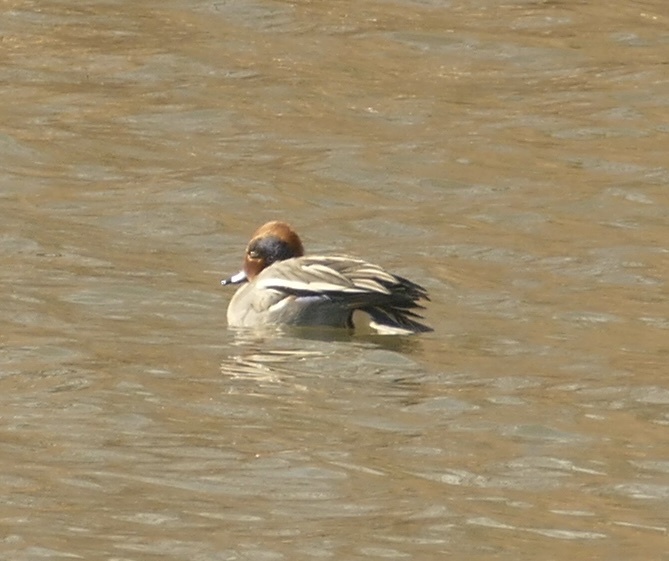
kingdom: Animalia
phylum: Chordata
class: Aves
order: Anseriformes
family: Anatidae
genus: Anas
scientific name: Anas crecca
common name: Eurasian teal
